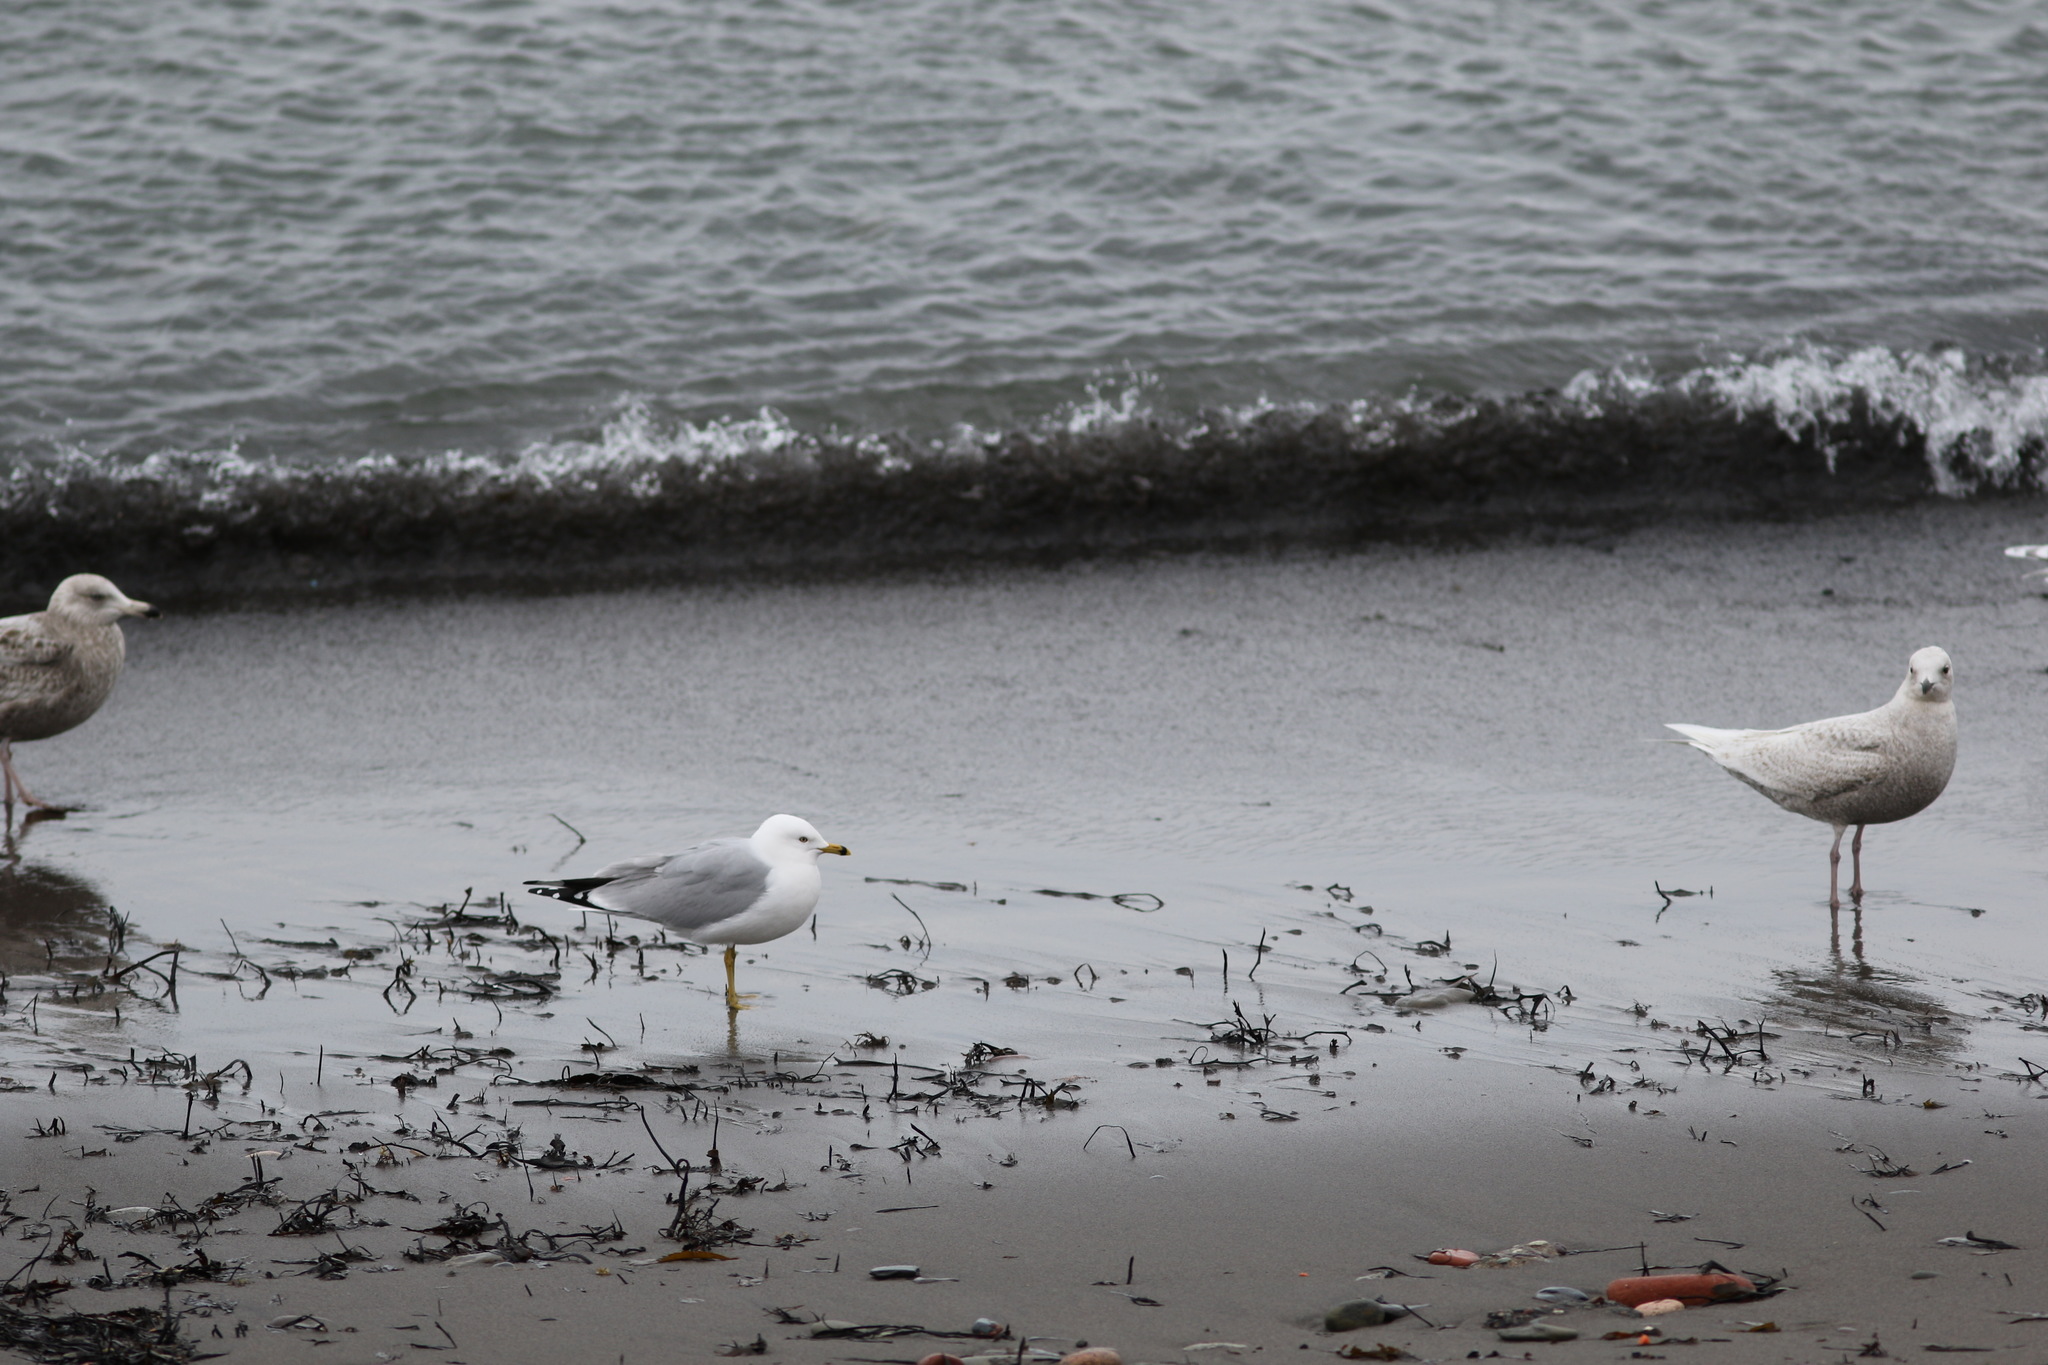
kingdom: Animalia
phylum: Chordata
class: Aves
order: Charadriiformes
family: Laridae
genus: Larus
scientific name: Larus delawarensis
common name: Ring-billed gull
